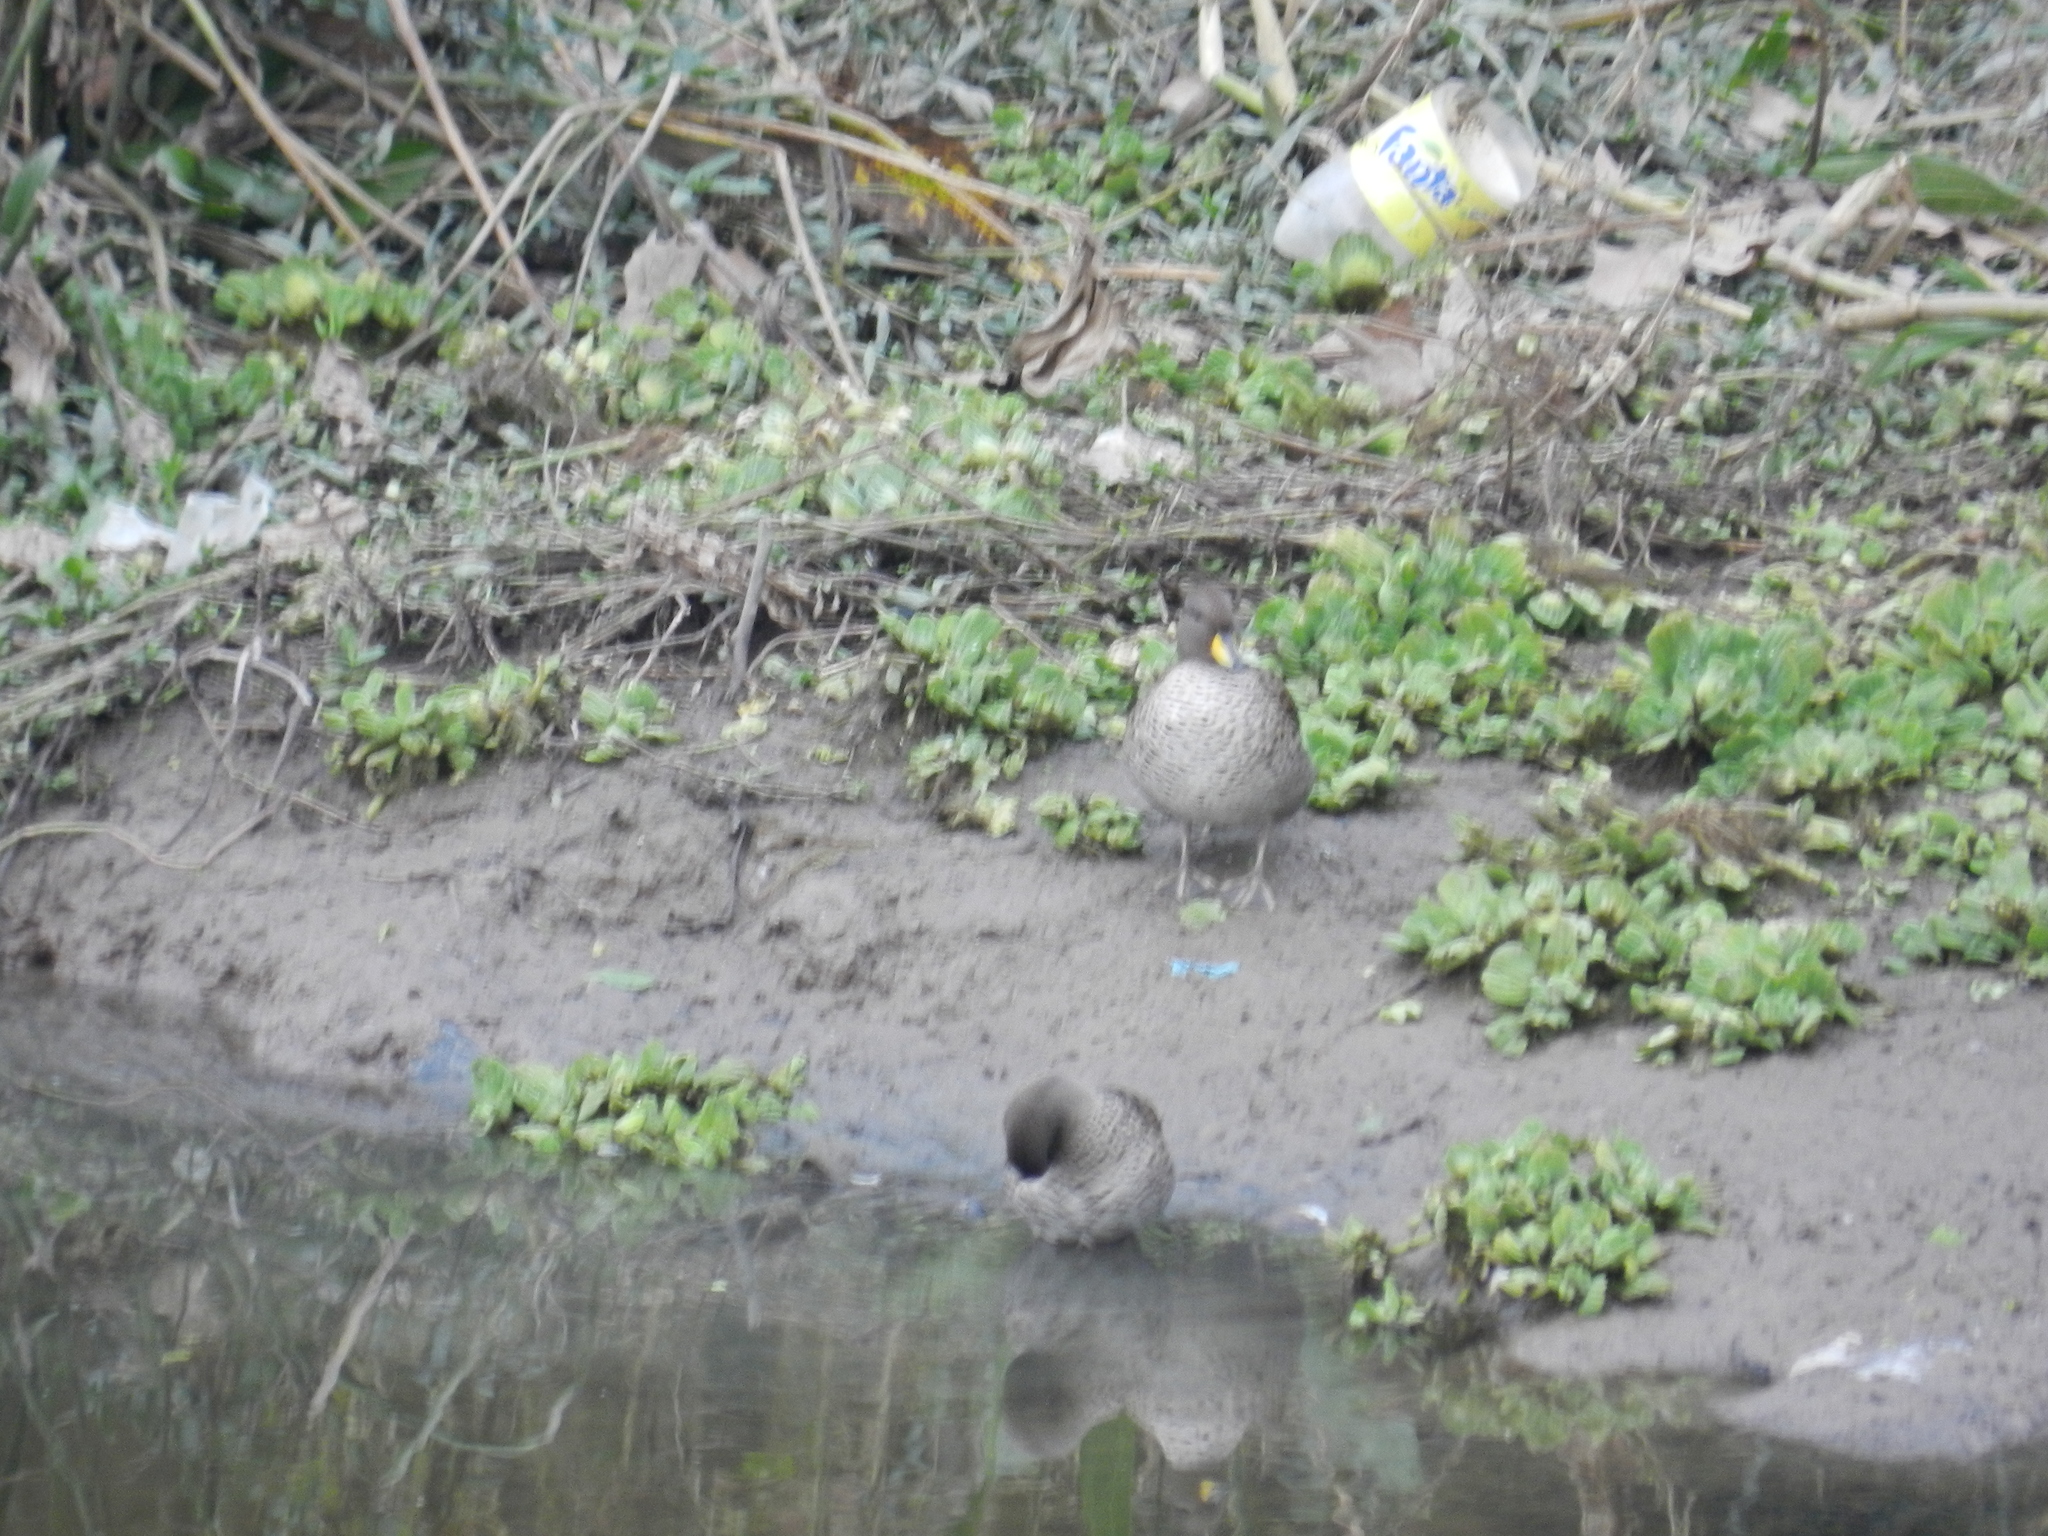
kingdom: Animalia
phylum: Chordata
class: Aves
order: Anseriformes
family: Anatidae
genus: Anas
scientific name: Anas flavirostris
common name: Yellow-billed teal
